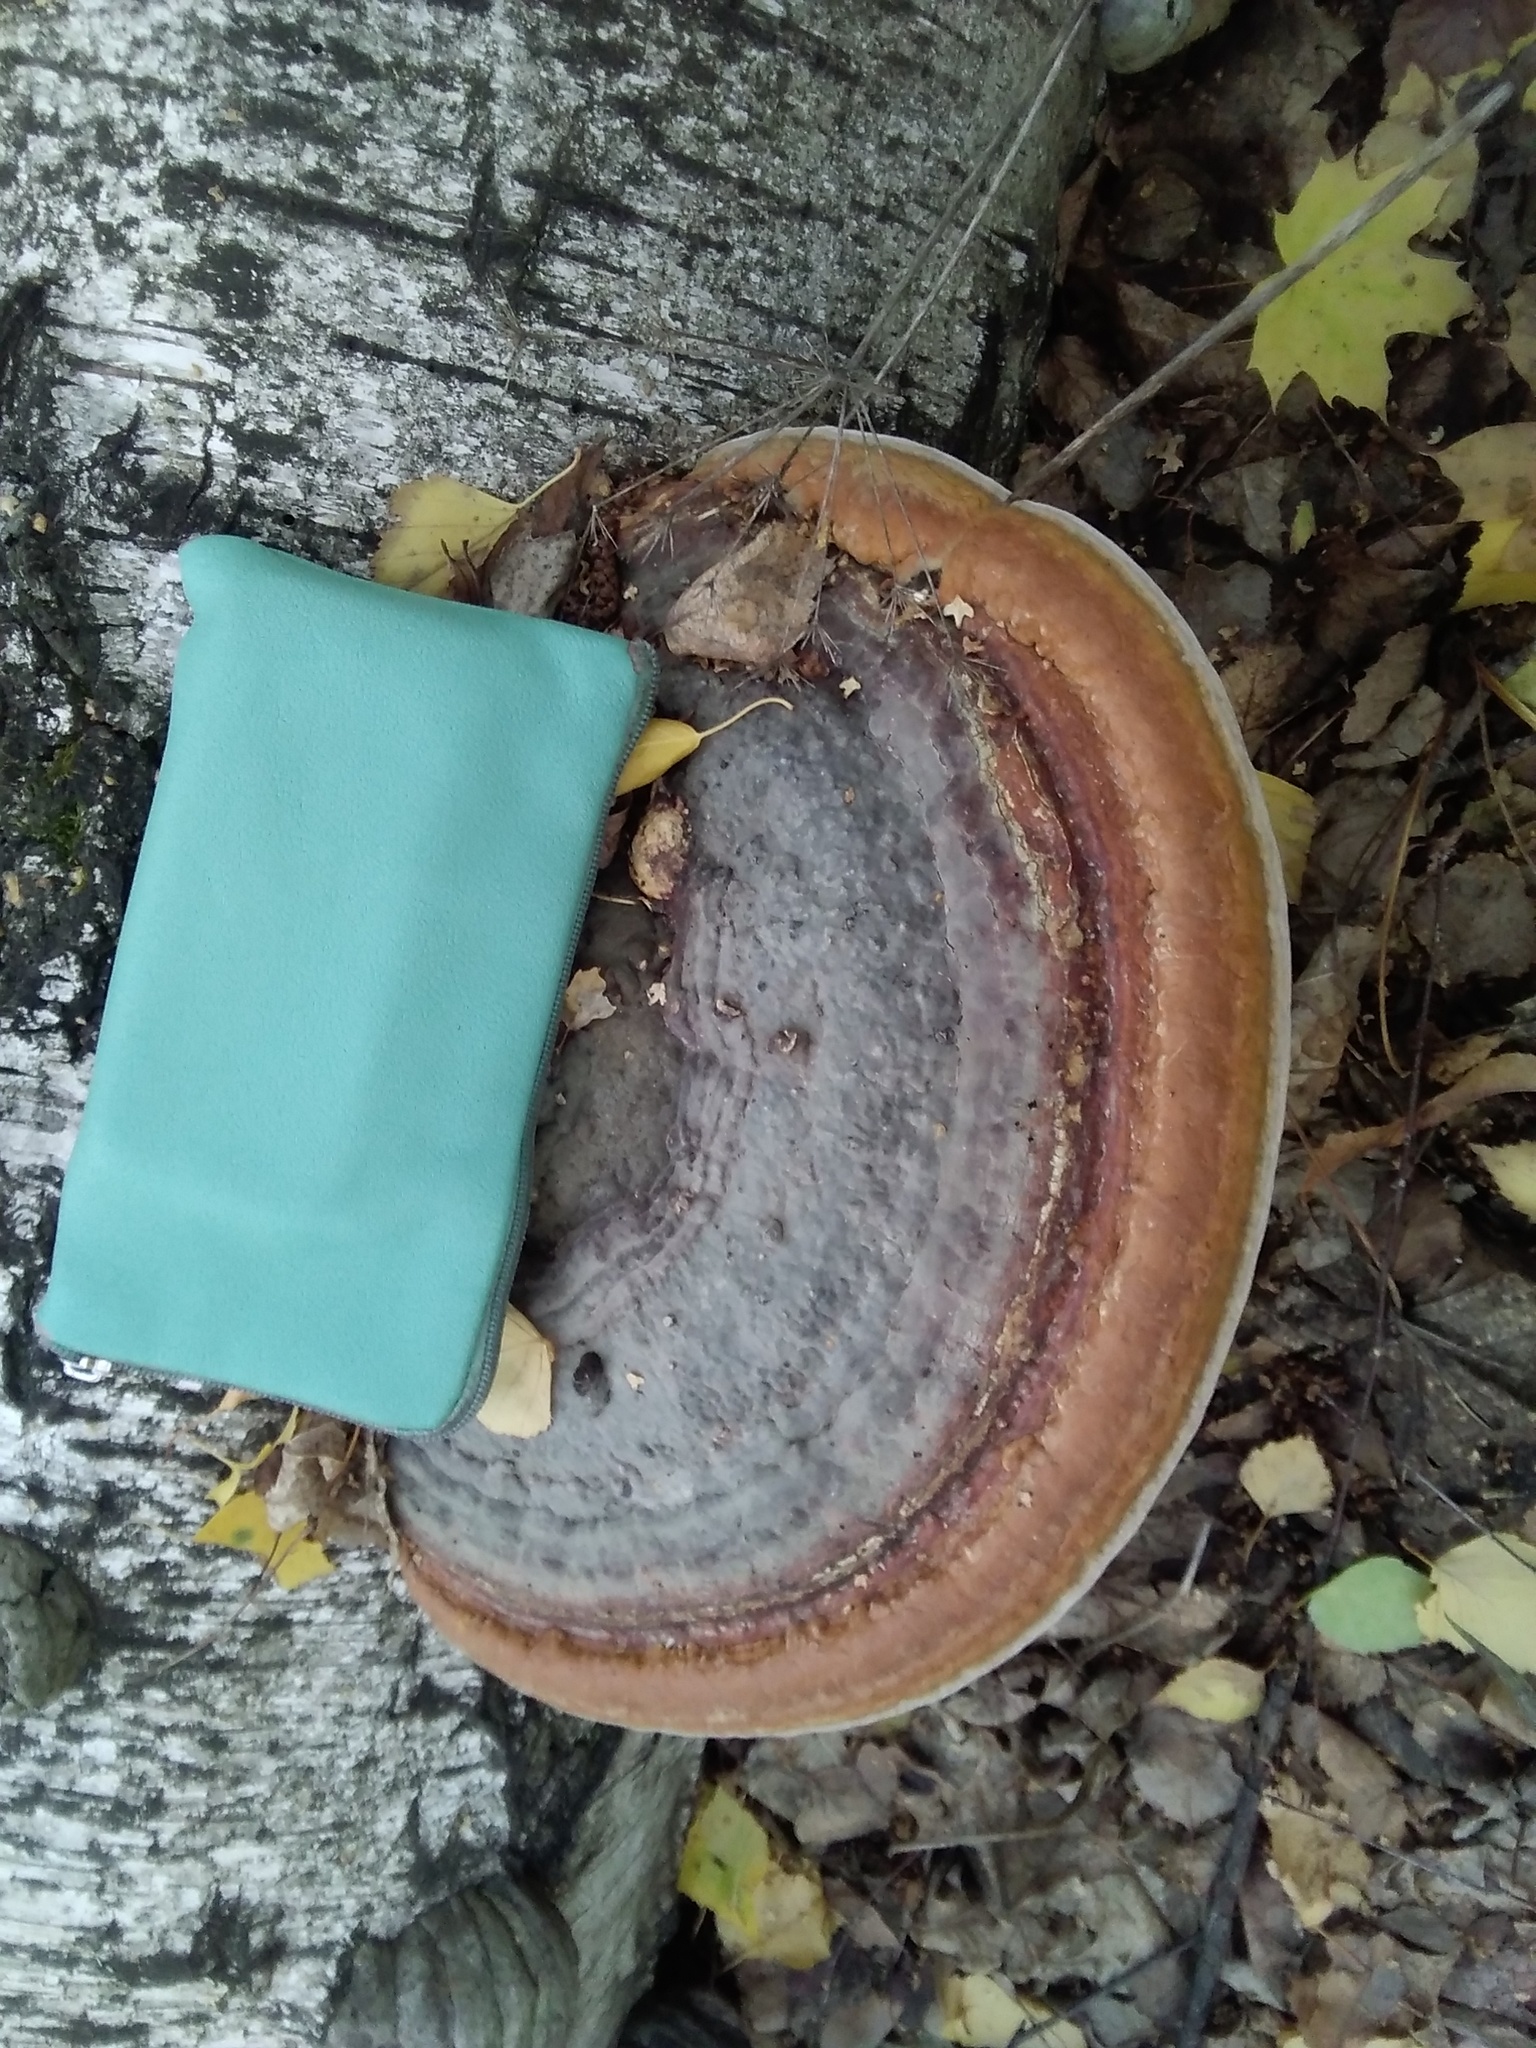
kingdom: Fungi
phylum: Basidiomycota
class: Agaricomycetes
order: Polyporales
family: Fomitopsidaceae
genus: Fomitopsis
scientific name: Fomitopsis pinicola
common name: Red-belted bracket
